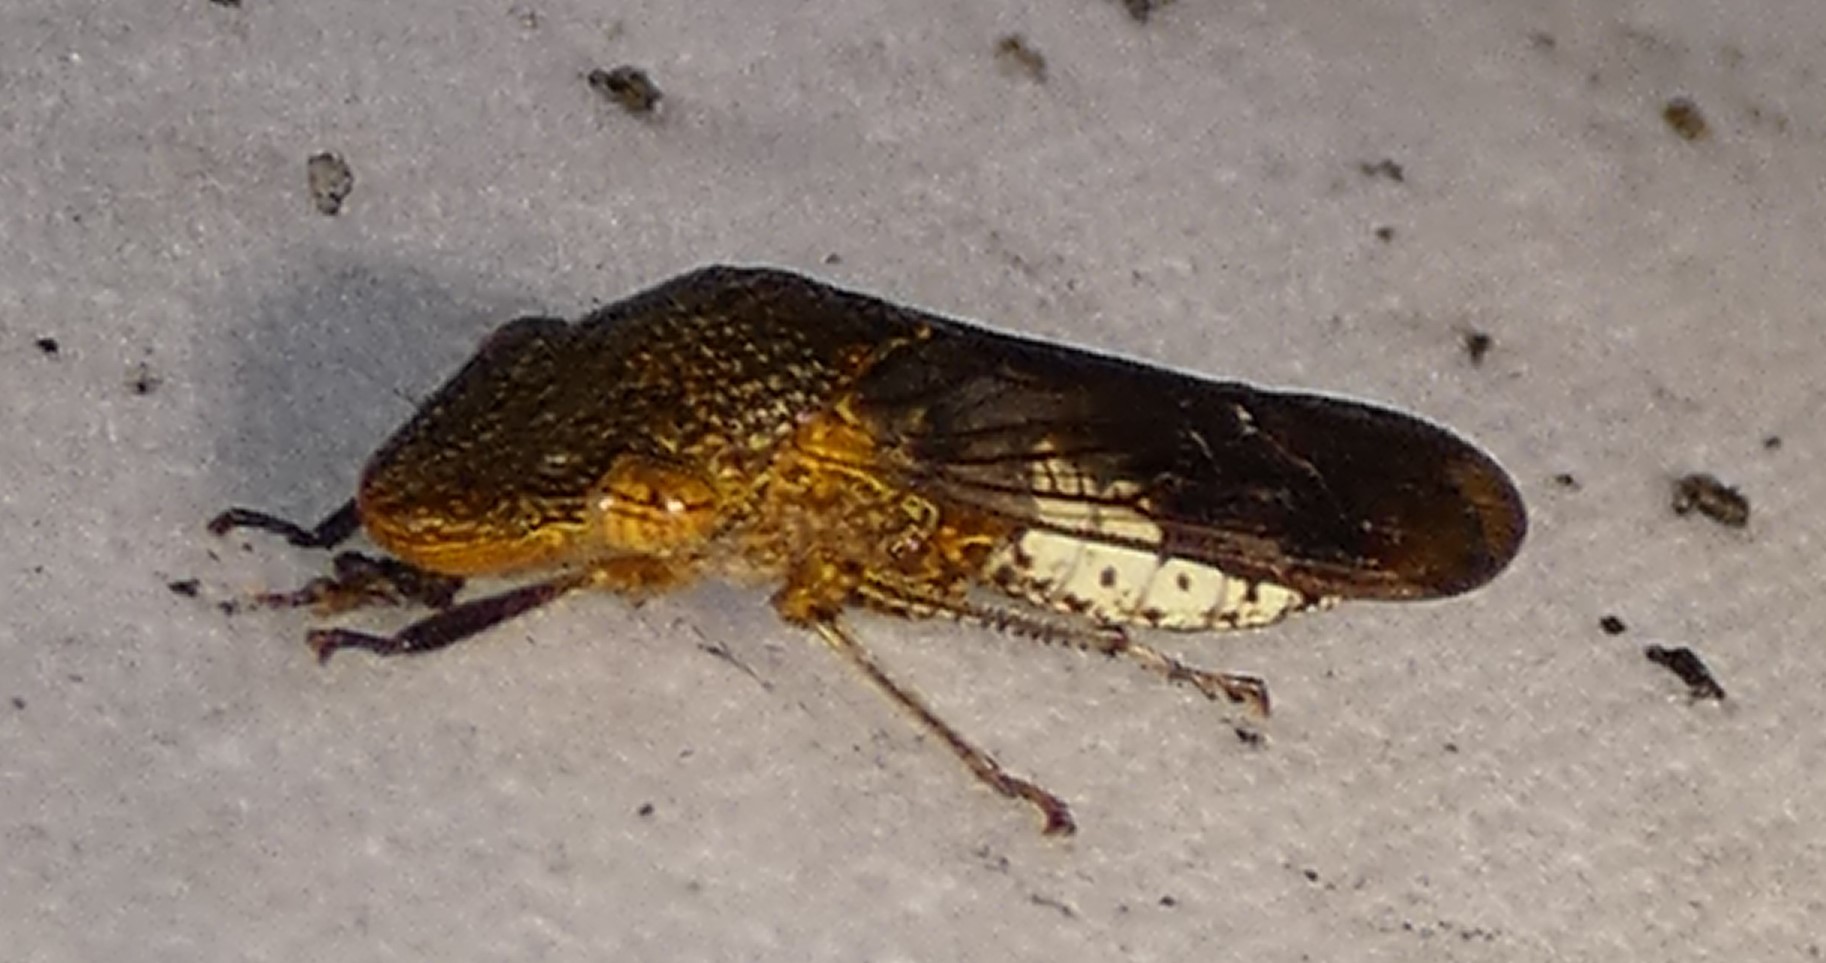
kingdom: Animalia
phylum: Arthropoda
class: Insecta
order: Hemiptera
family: Cicadellidae
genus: Homalodisca
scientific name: Homalodisca vitripennis
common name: Glassy-winged sharpshooter
